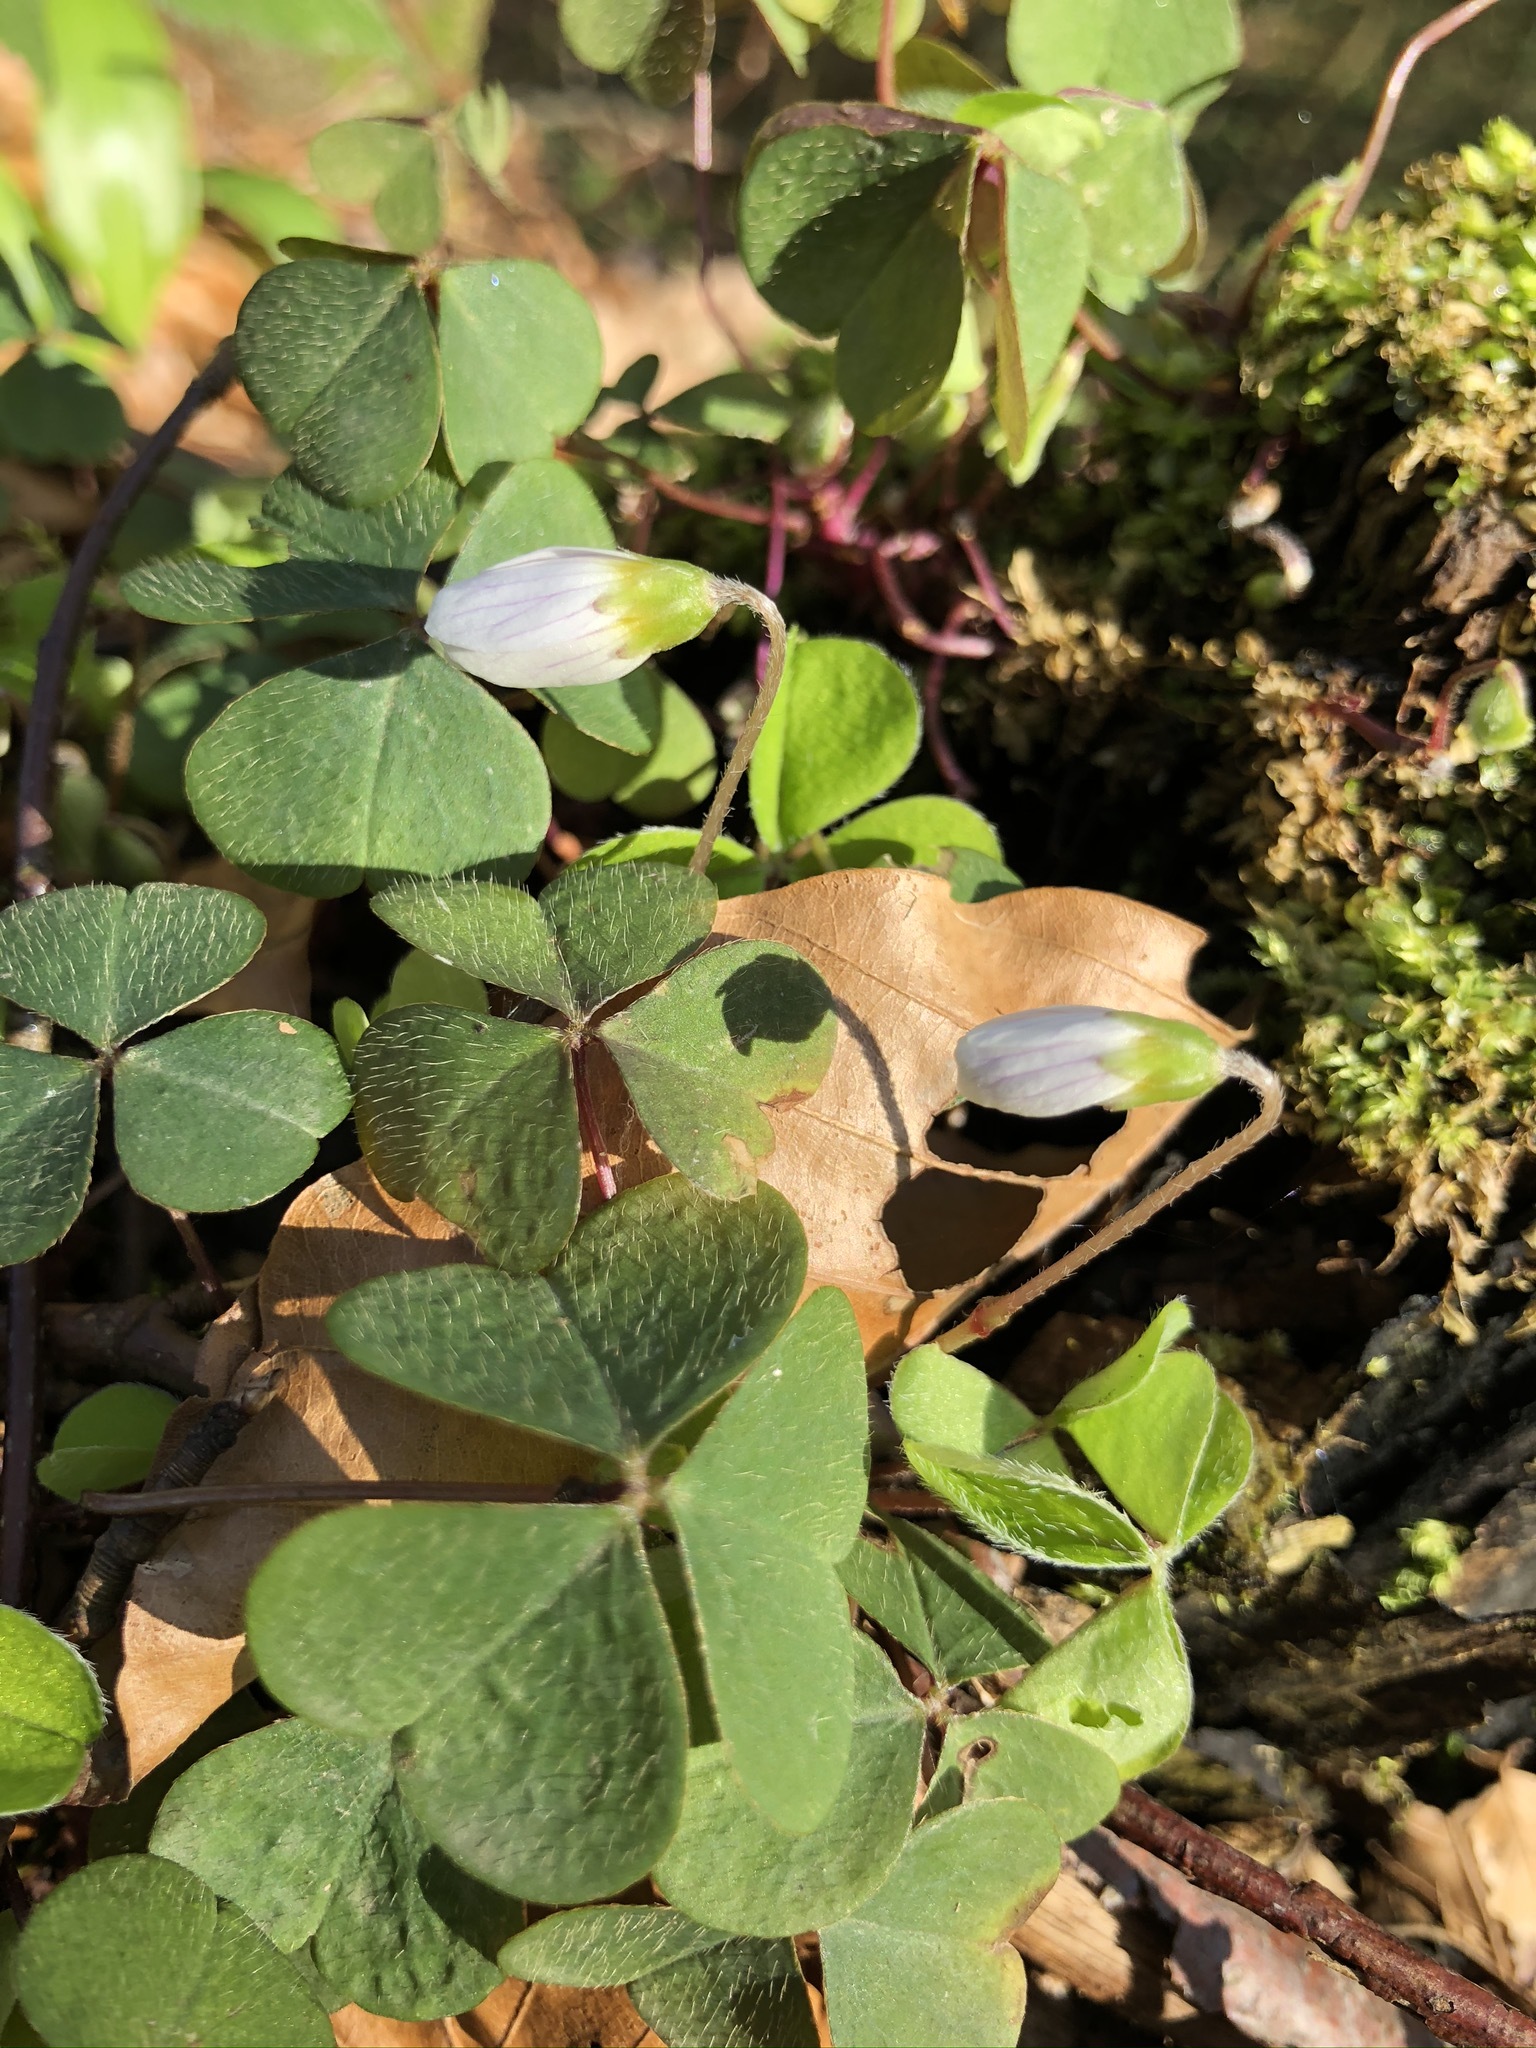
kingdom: Plantae
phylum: Tracheophyta
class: Magnoliopsida
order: Oxalidales
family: Oxalidaceae
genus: Oxalis
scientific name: Oxalis acetosella
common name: Wood-sorrel
